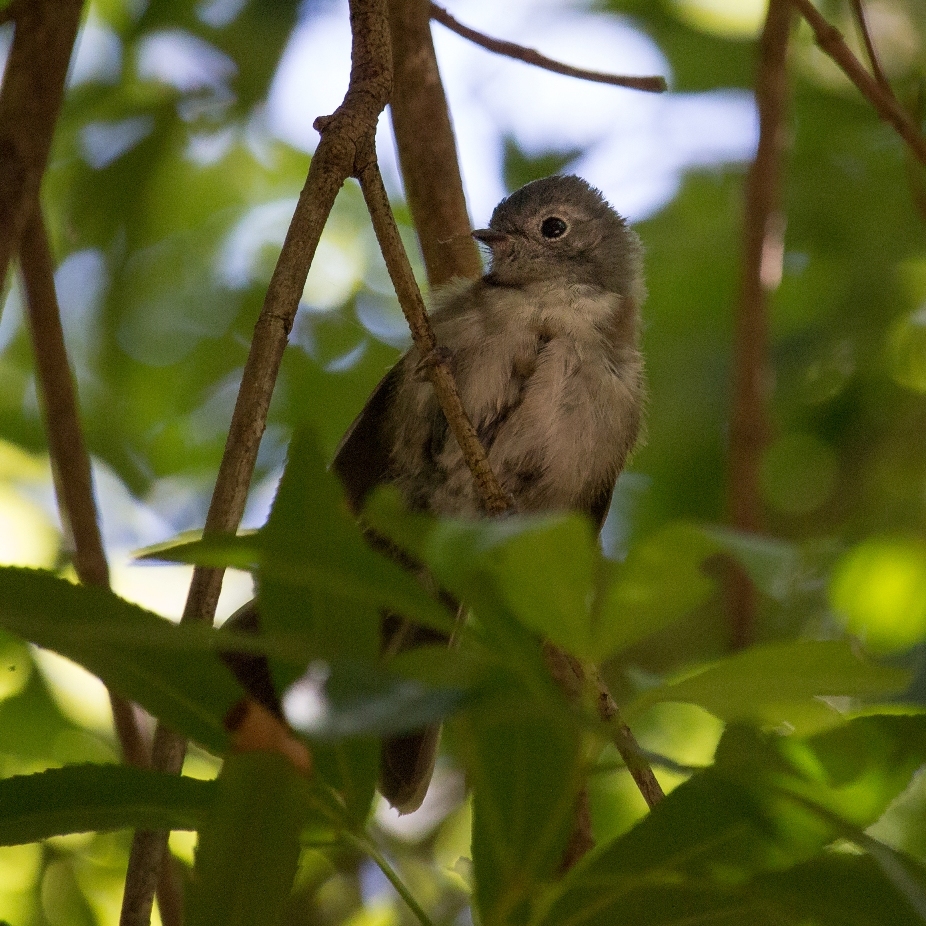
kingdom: Animalia
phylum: Chordata
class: Aves
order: Passeriformes
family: Monarchidae
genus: Trochocercus
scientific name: Trochocercus cyanomelas
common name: Blue-mantled crested flycatcher
